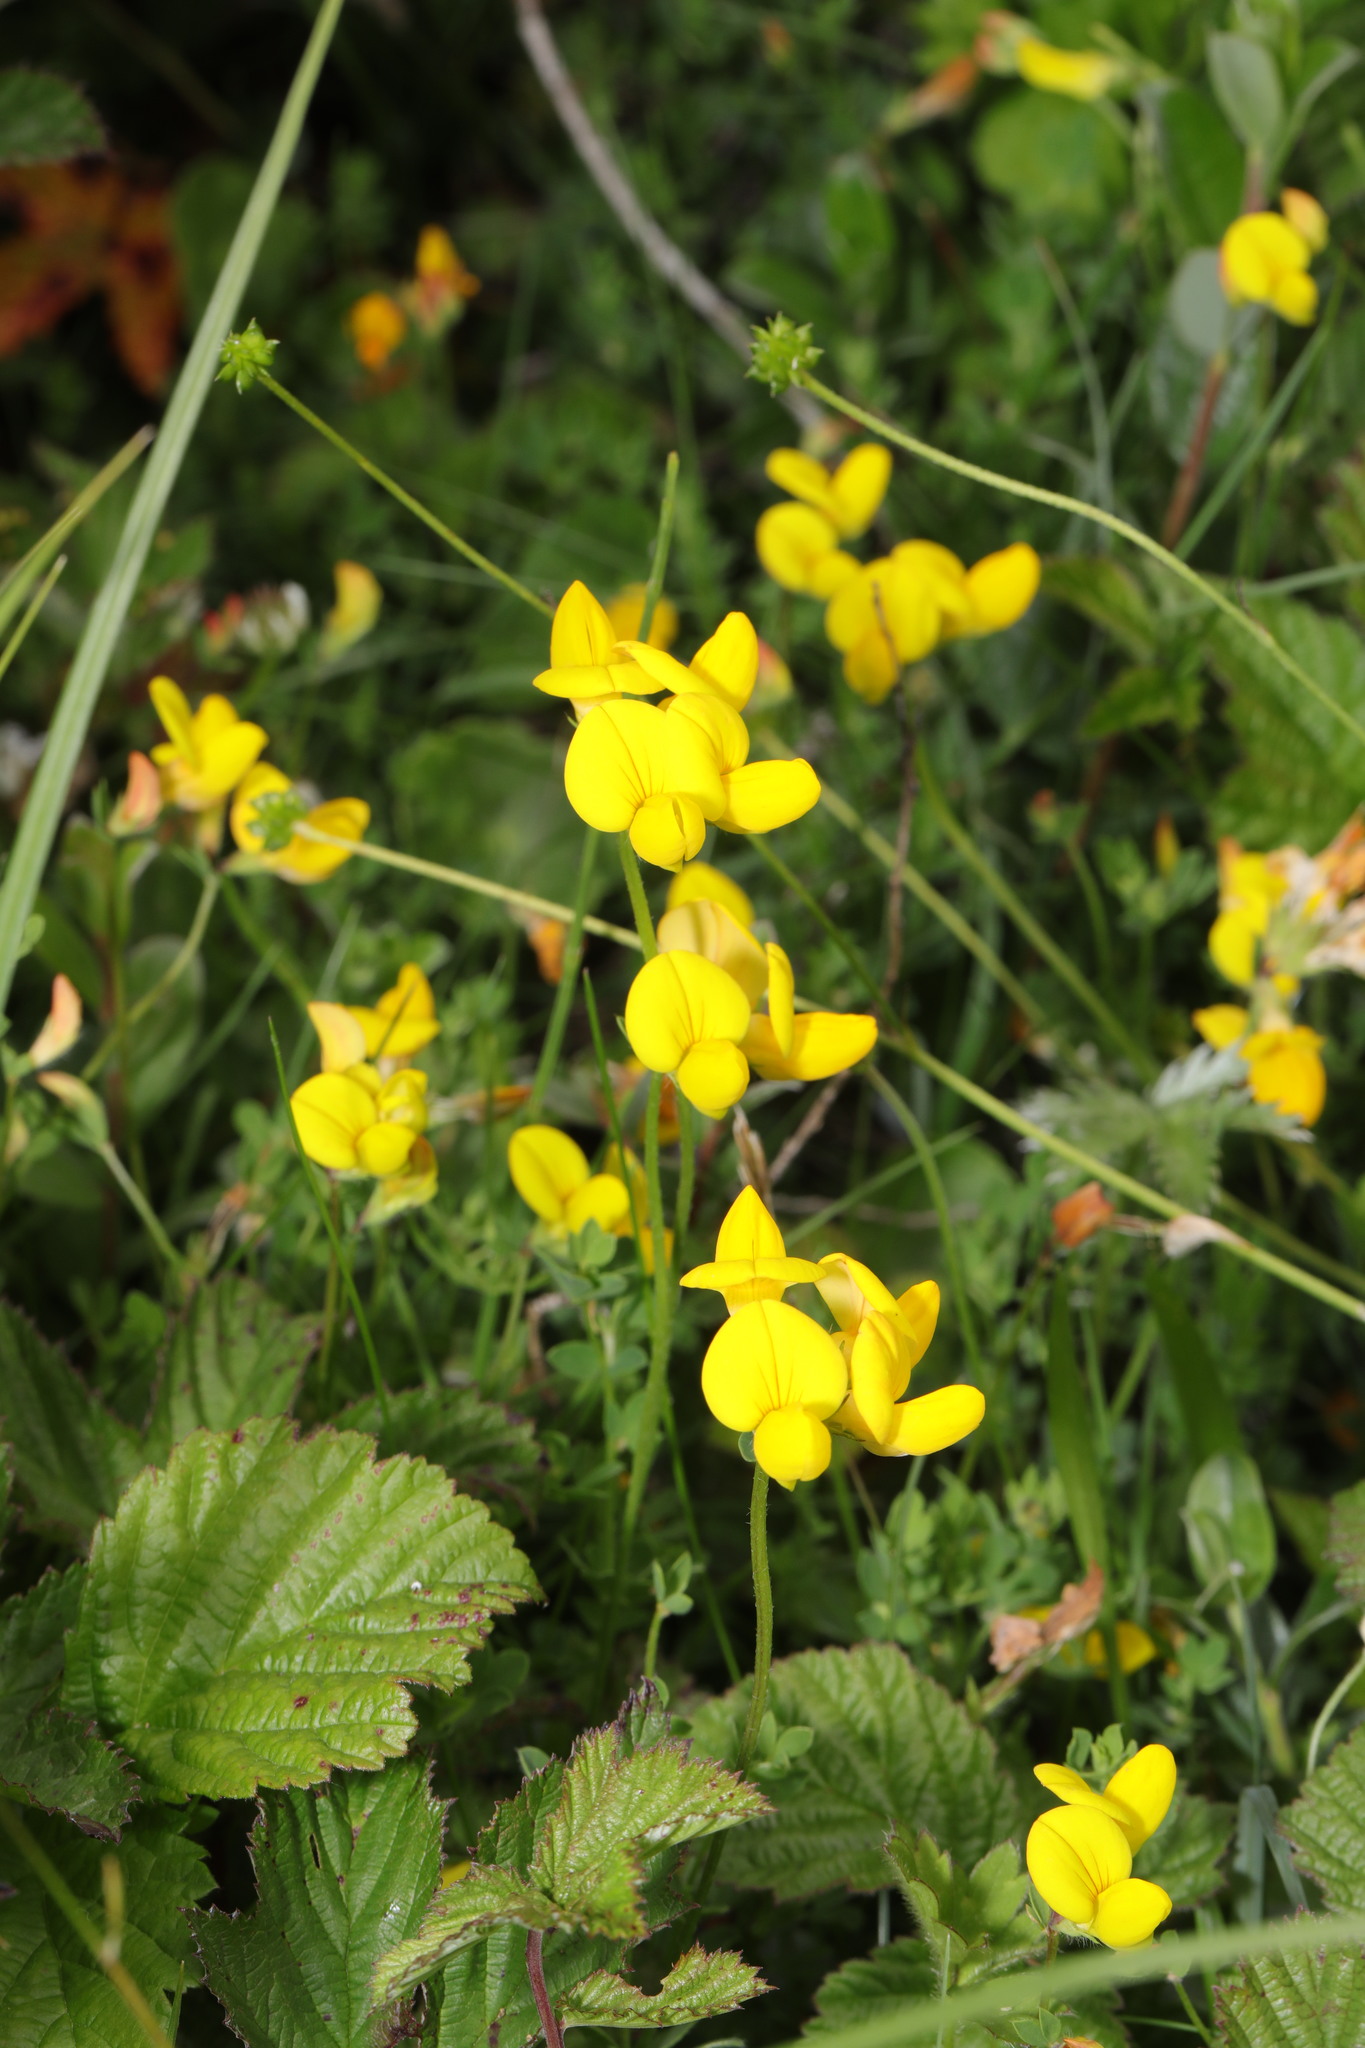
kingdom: Plantae
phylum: Tracheophyta
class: Magnoliopsida
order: Fabales
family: Fabaceae
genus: Lotus
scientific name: Lotus corniculatus
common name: Common bird's-foot-trefoil
